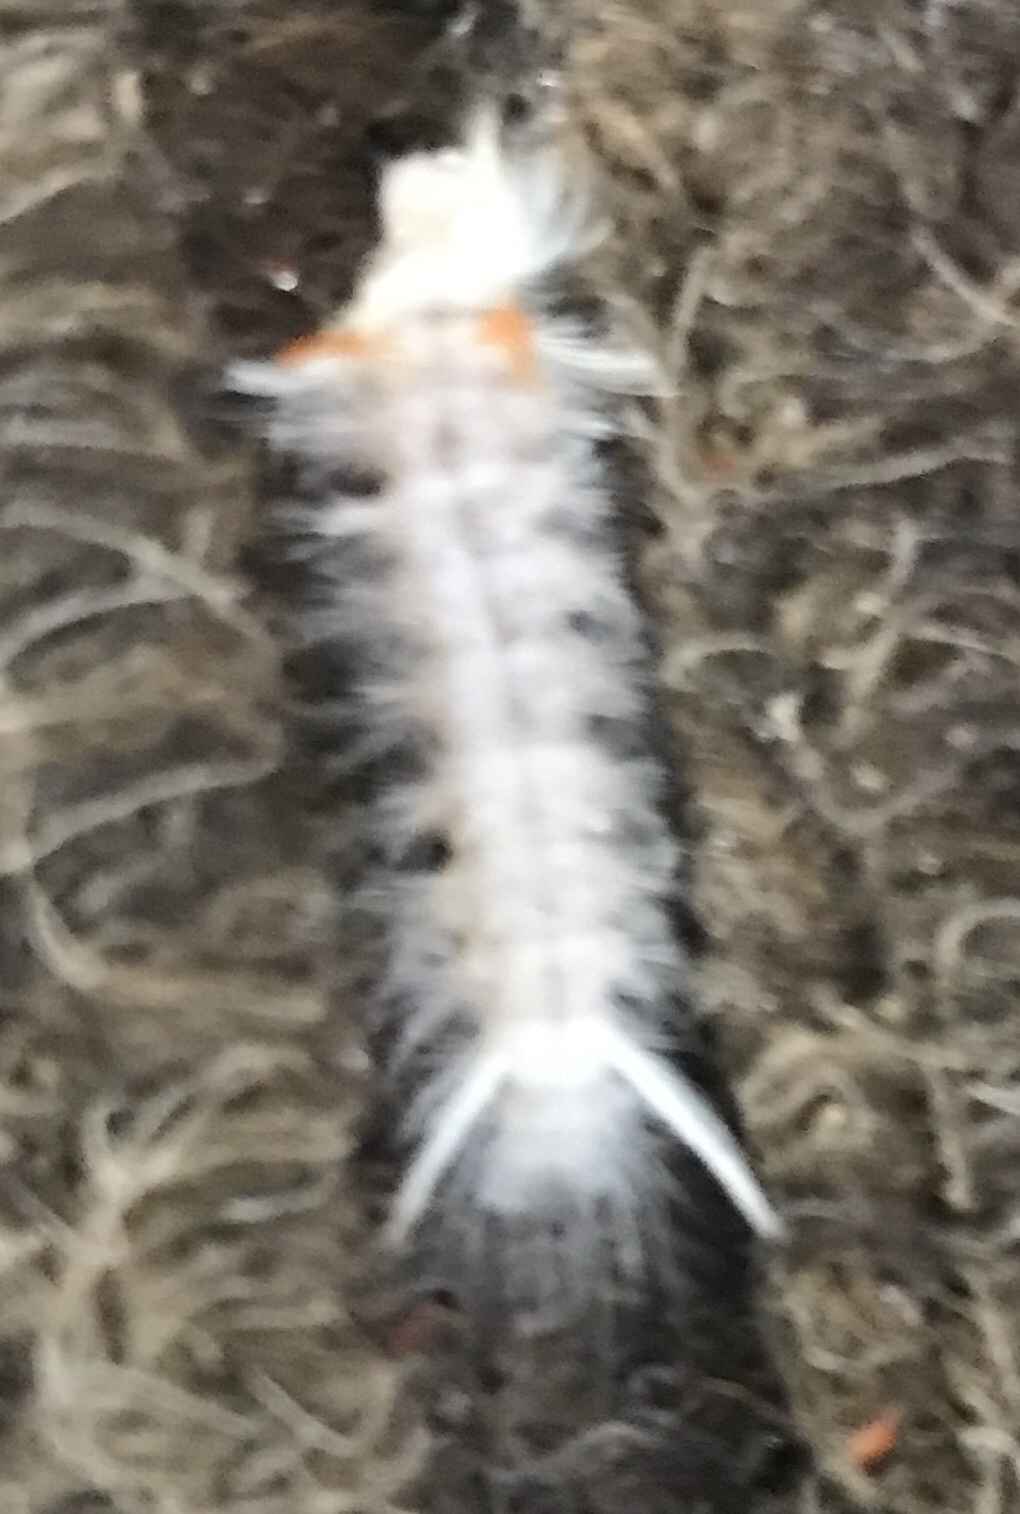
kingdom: Animalia
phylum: Arthropoda
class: Insecta
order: Lepidoptera
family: Erebidae
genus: Halysidota
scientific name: Halysidota harrisii
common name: Sycamore tussock moth
